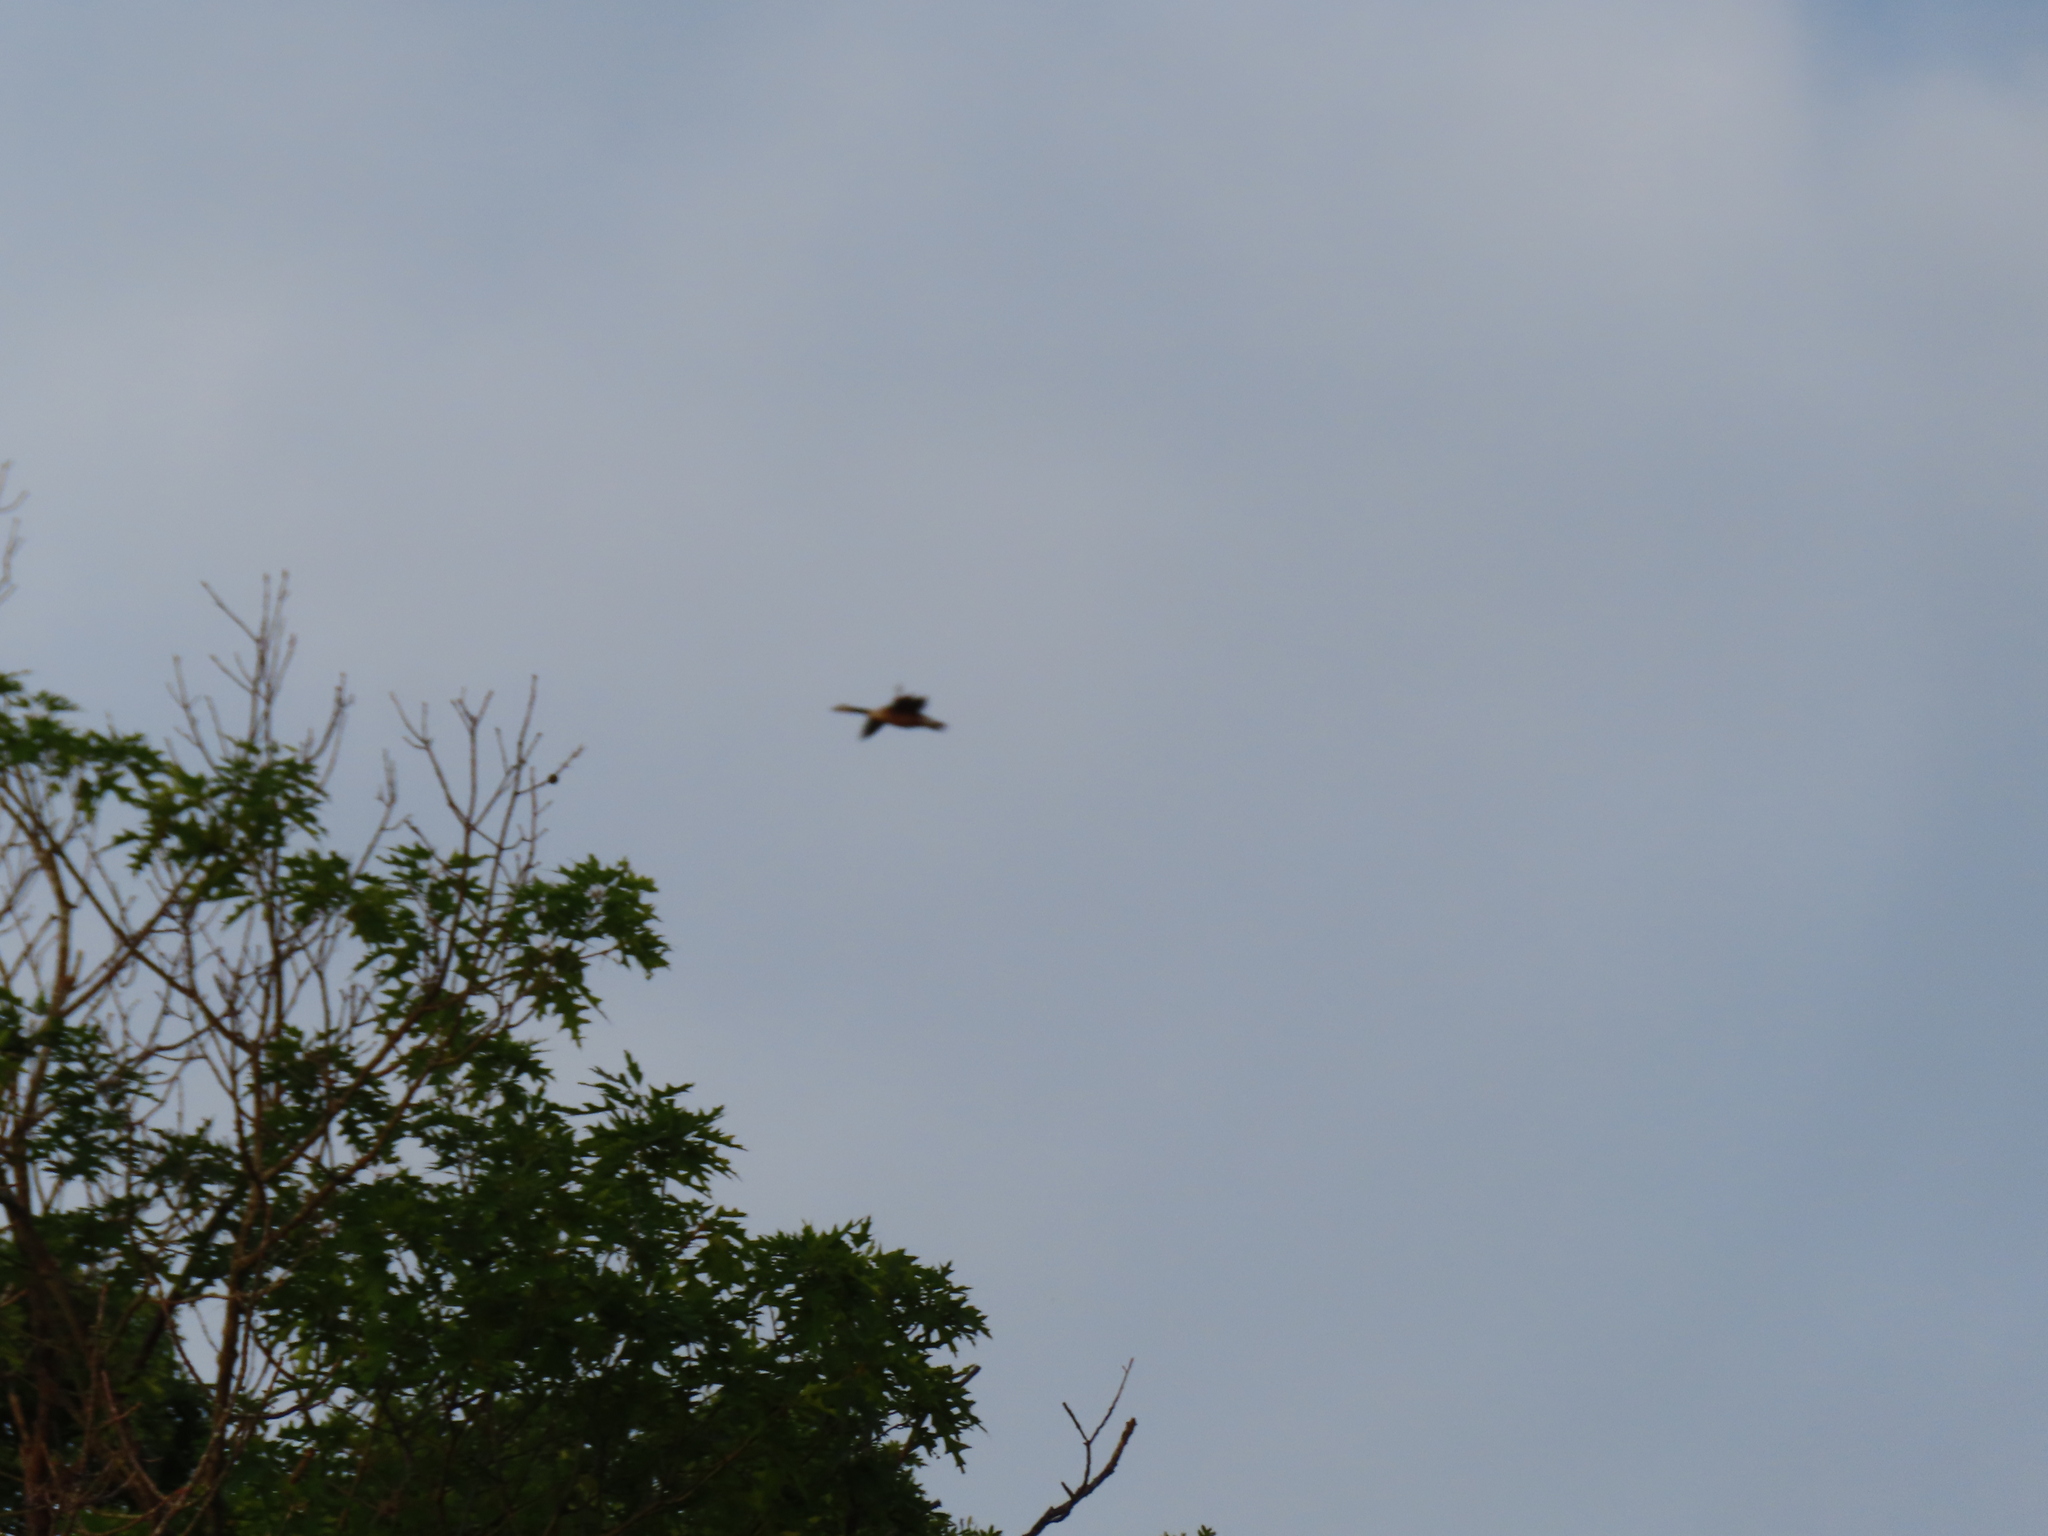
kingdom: Animalia
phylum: Chordata
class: Aves
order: Anseriformes
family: Anatidae
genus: Branta
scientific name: Branta canadensis
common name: Canada goose
